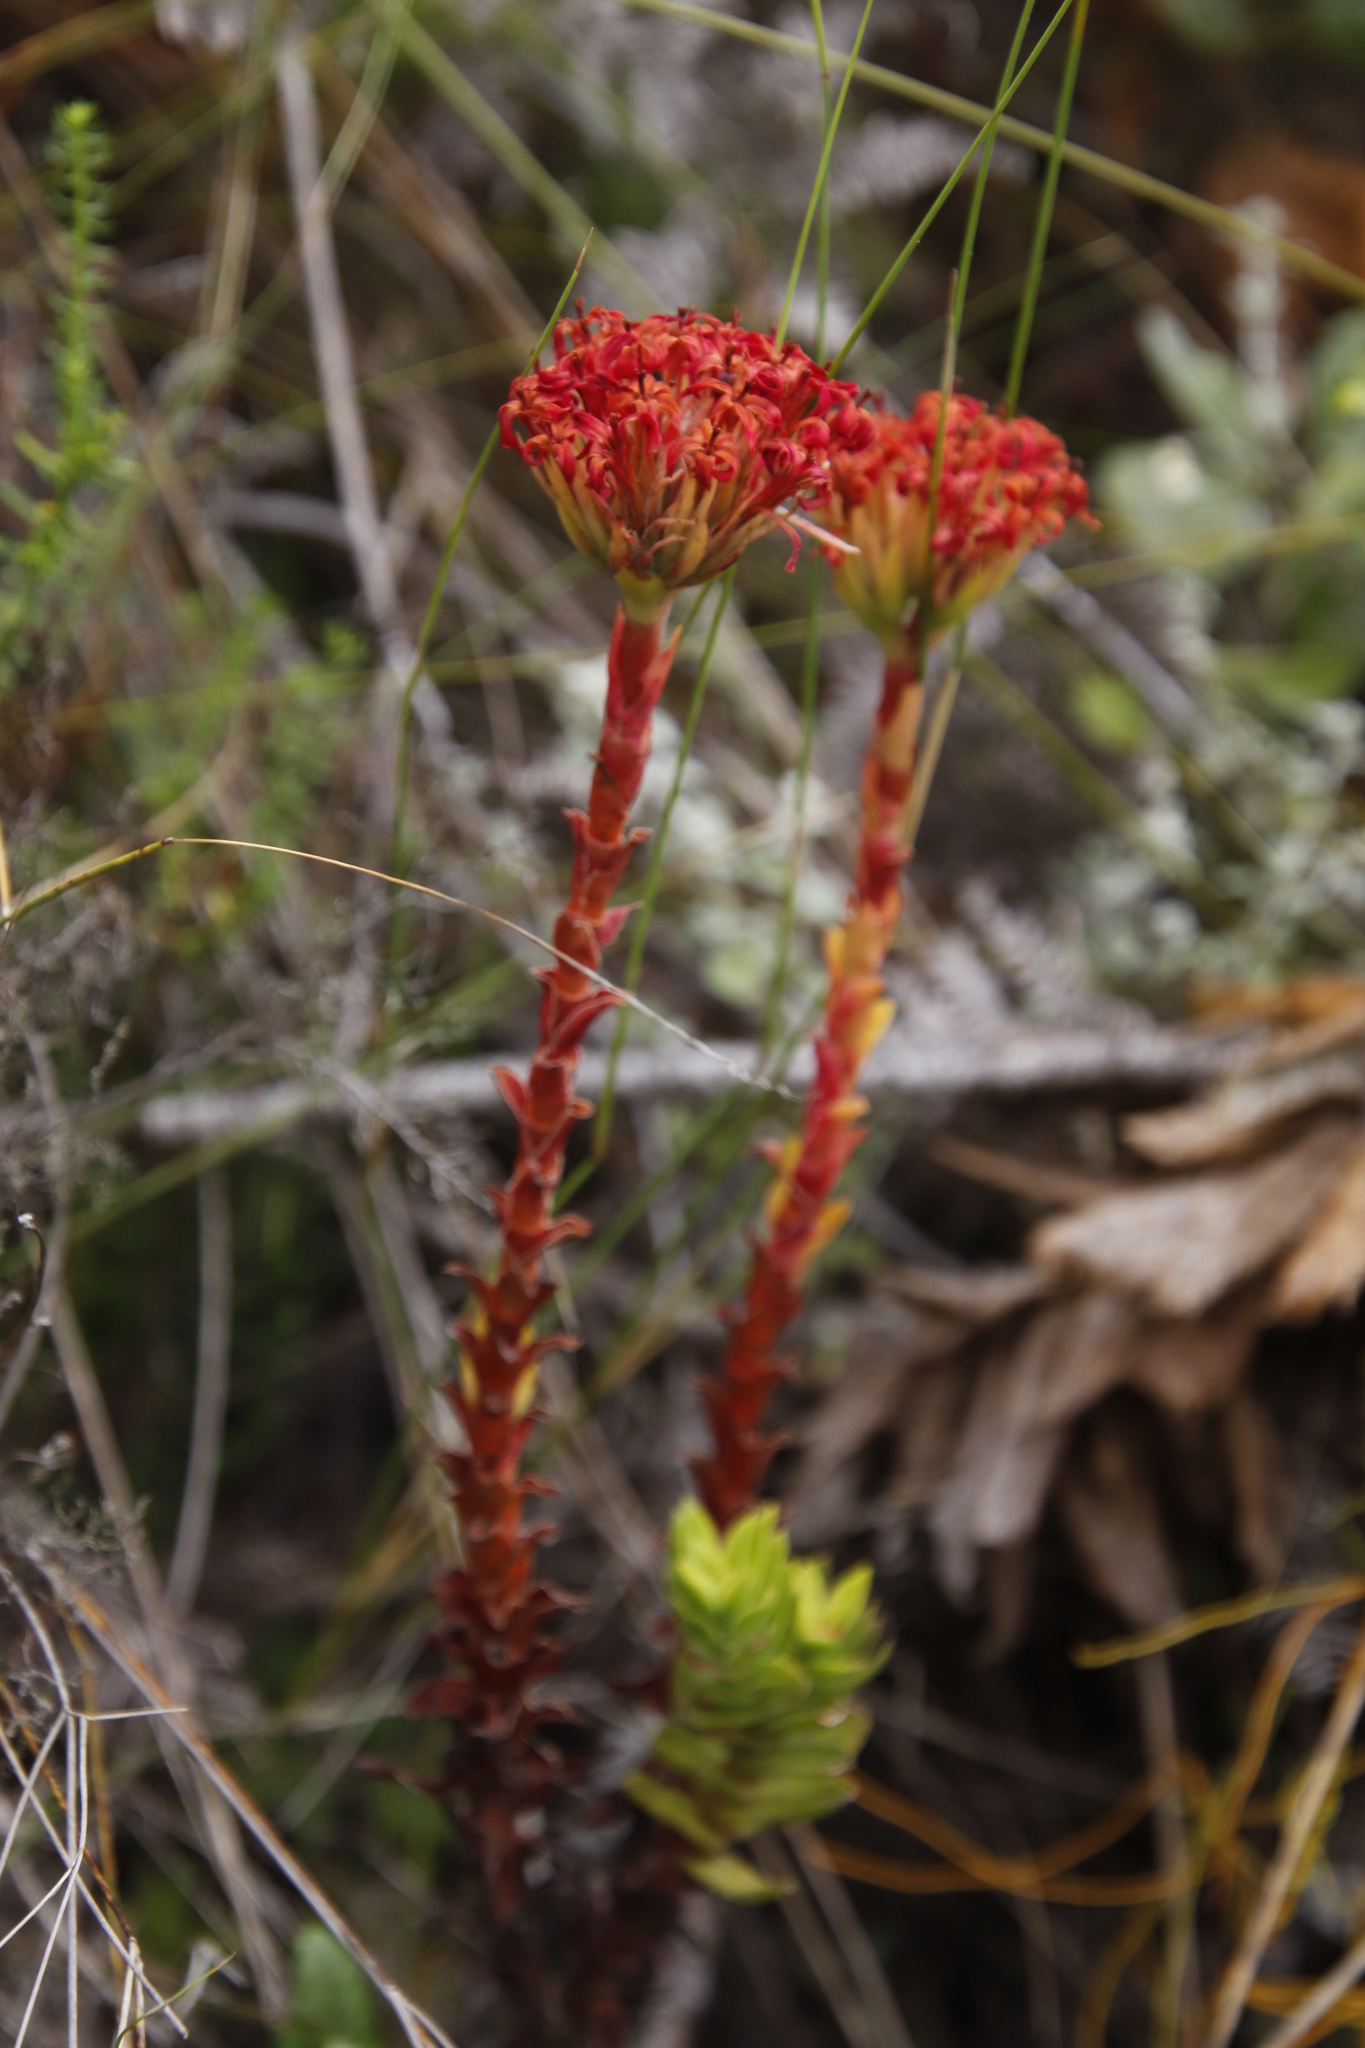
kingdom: Plantae
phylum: Tracheophyta
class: Magnoliopsida
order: Saxifragales
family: Crassulaceae
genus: Crassula
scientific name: Crassula coccinea
